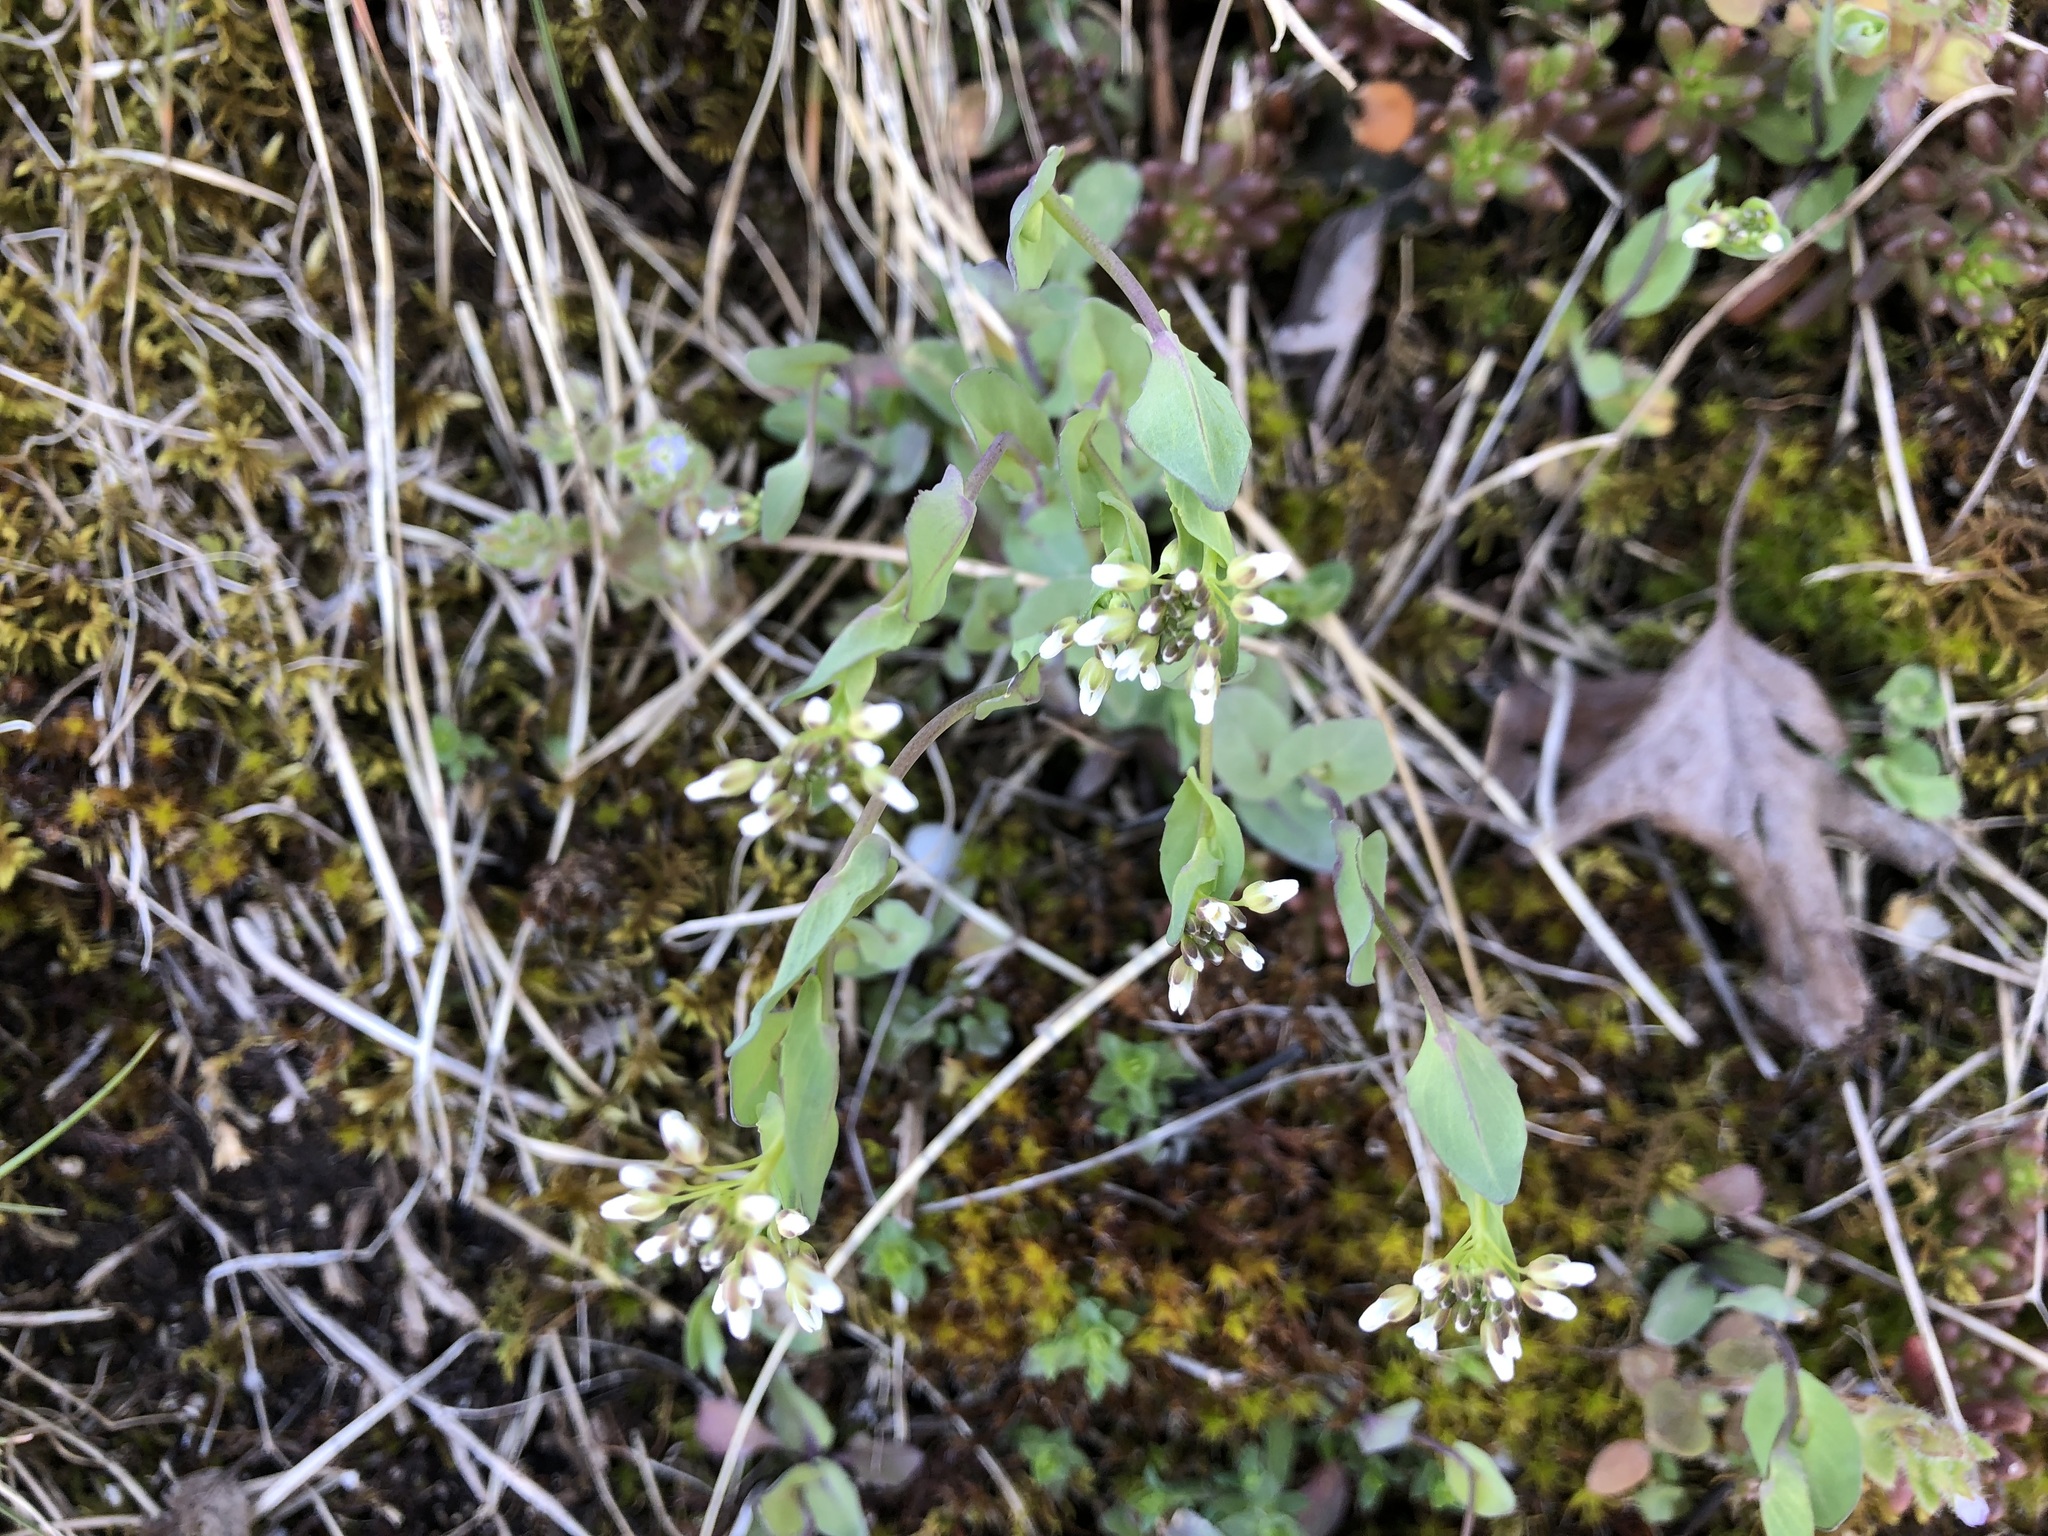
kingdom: Plantae
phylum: Tracheophyta
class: Magnoliopsida
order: Brassicales
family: Brassicaceae
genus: Noccaea
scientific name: Noccaea perfoliata
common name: Perfoliate pennycress
